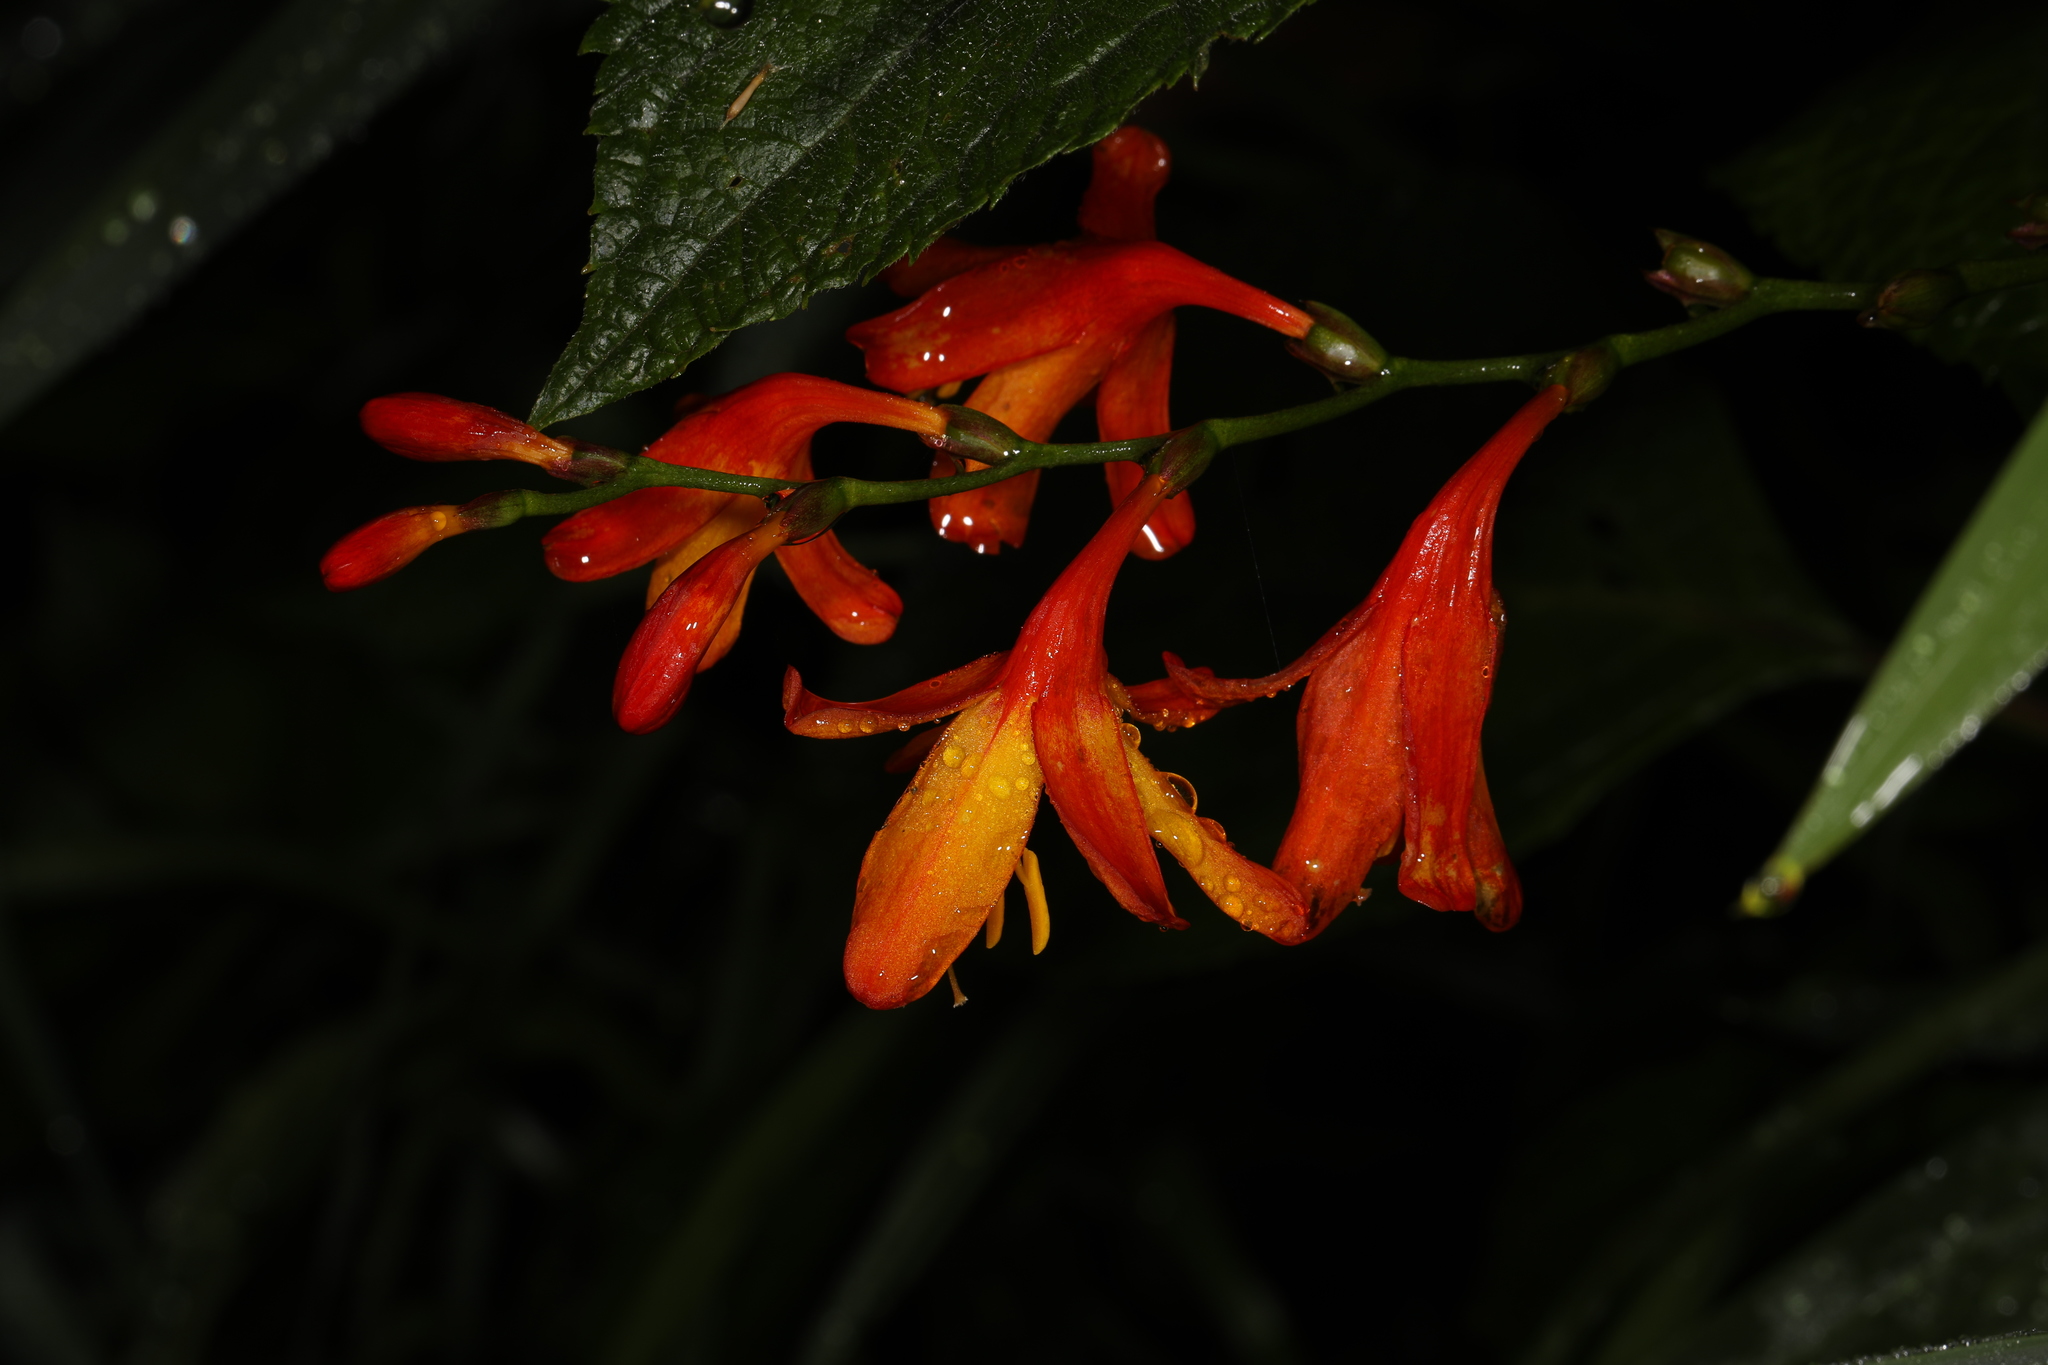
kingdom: Plantae
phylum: Tracheophyta
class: Liliopsida
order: Asparagales
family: Iridaceae
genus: Crocosmia
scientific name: Crocosmia crocosmiiflora
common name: Montbretia
